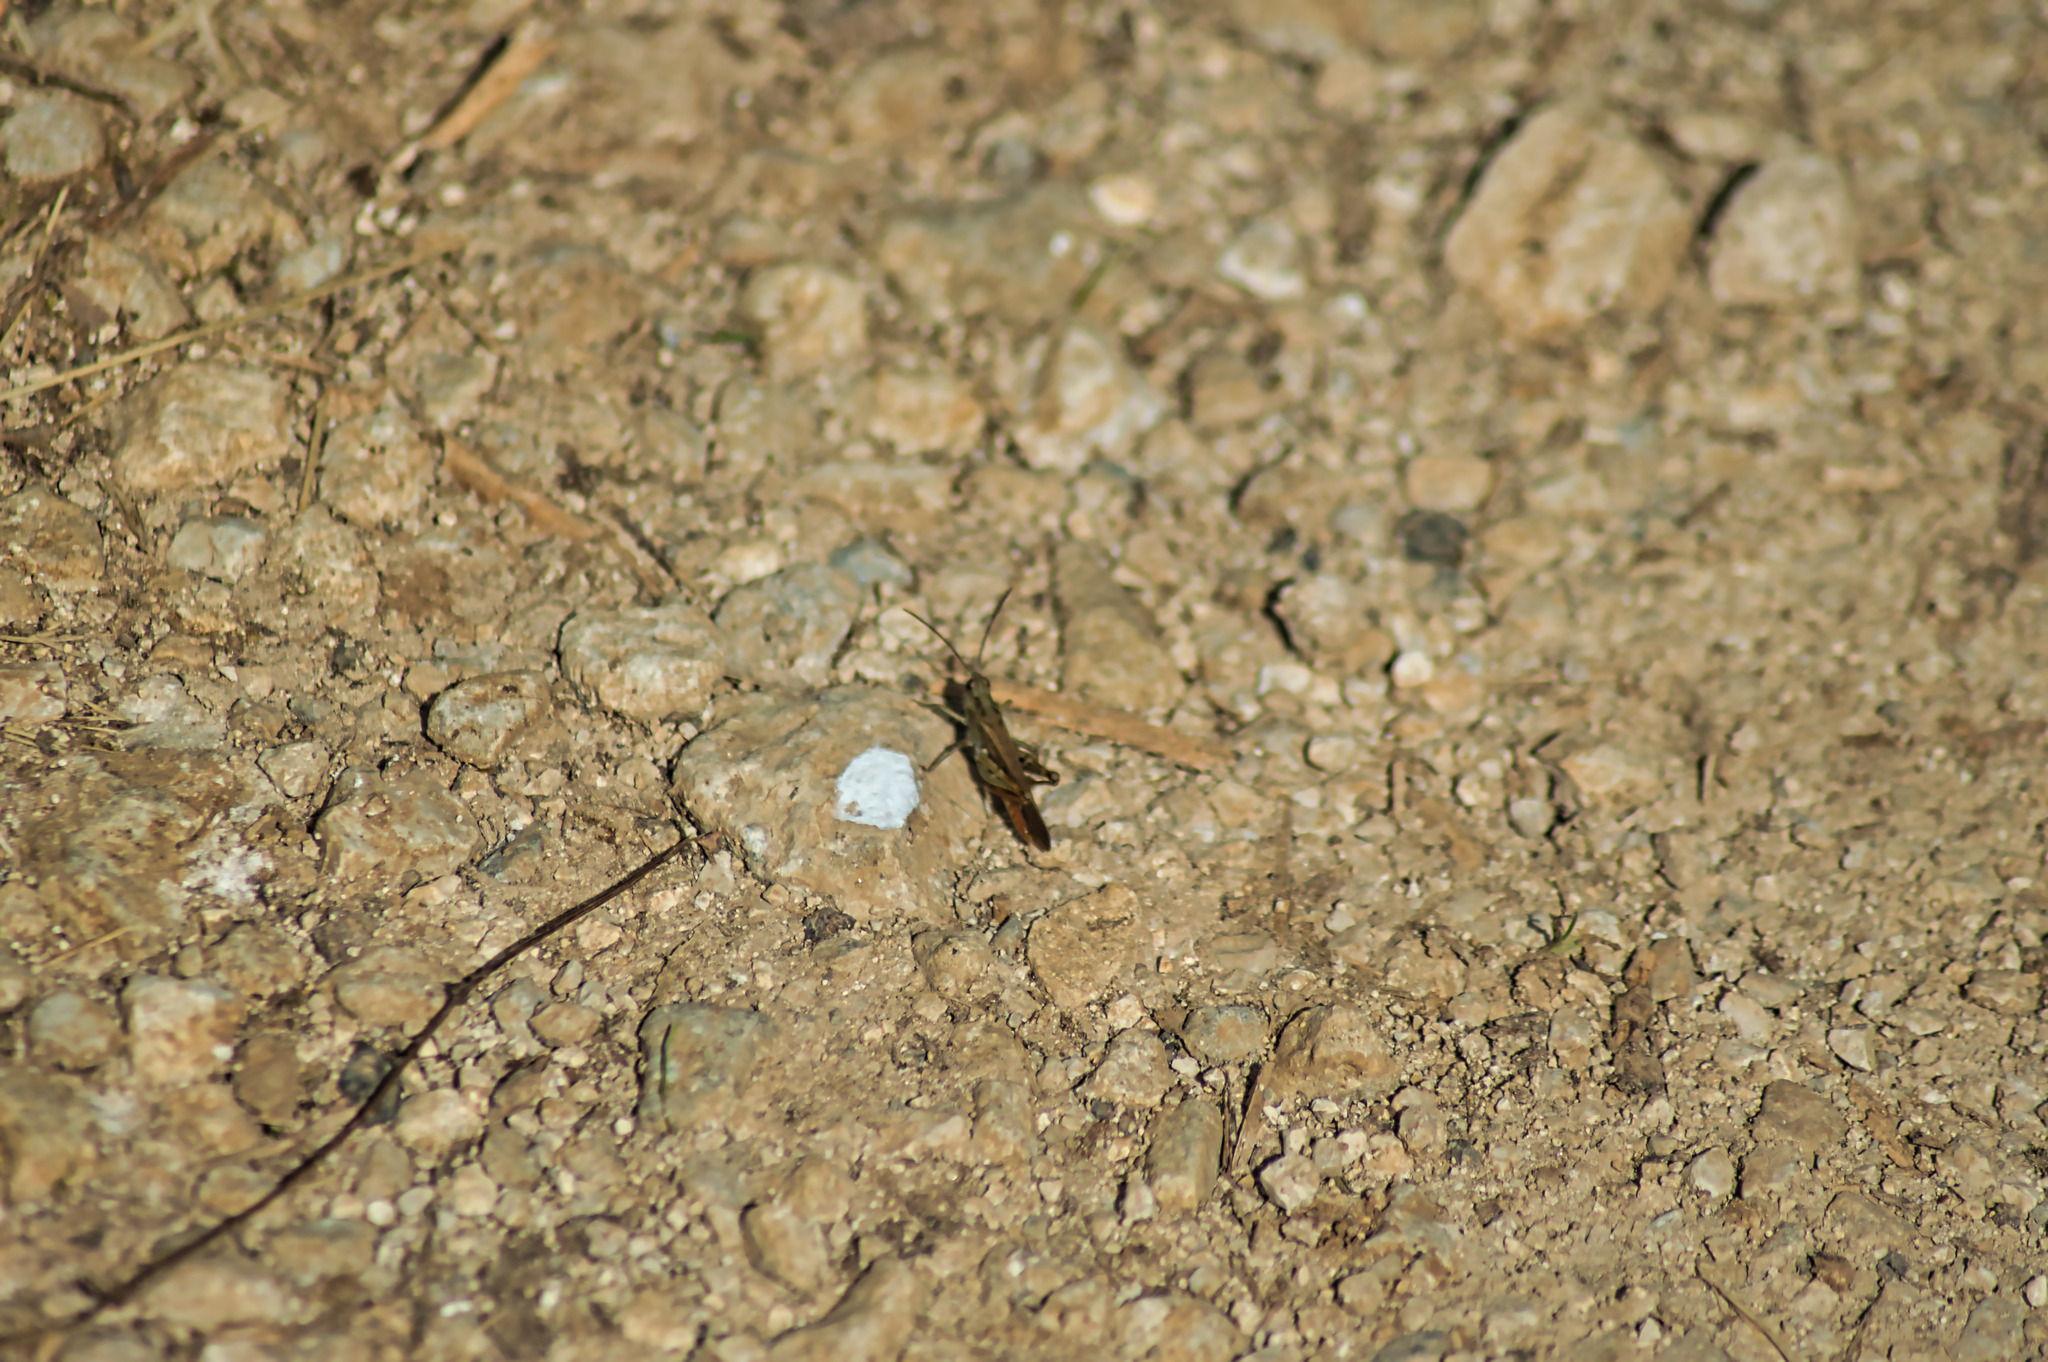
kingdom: Animalia
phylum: Arthropoda
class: Insecta
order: Orthoptera
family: Acrididae
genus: Chorthippus
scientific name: Chorthippus brunneus
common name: Field grasshopper
